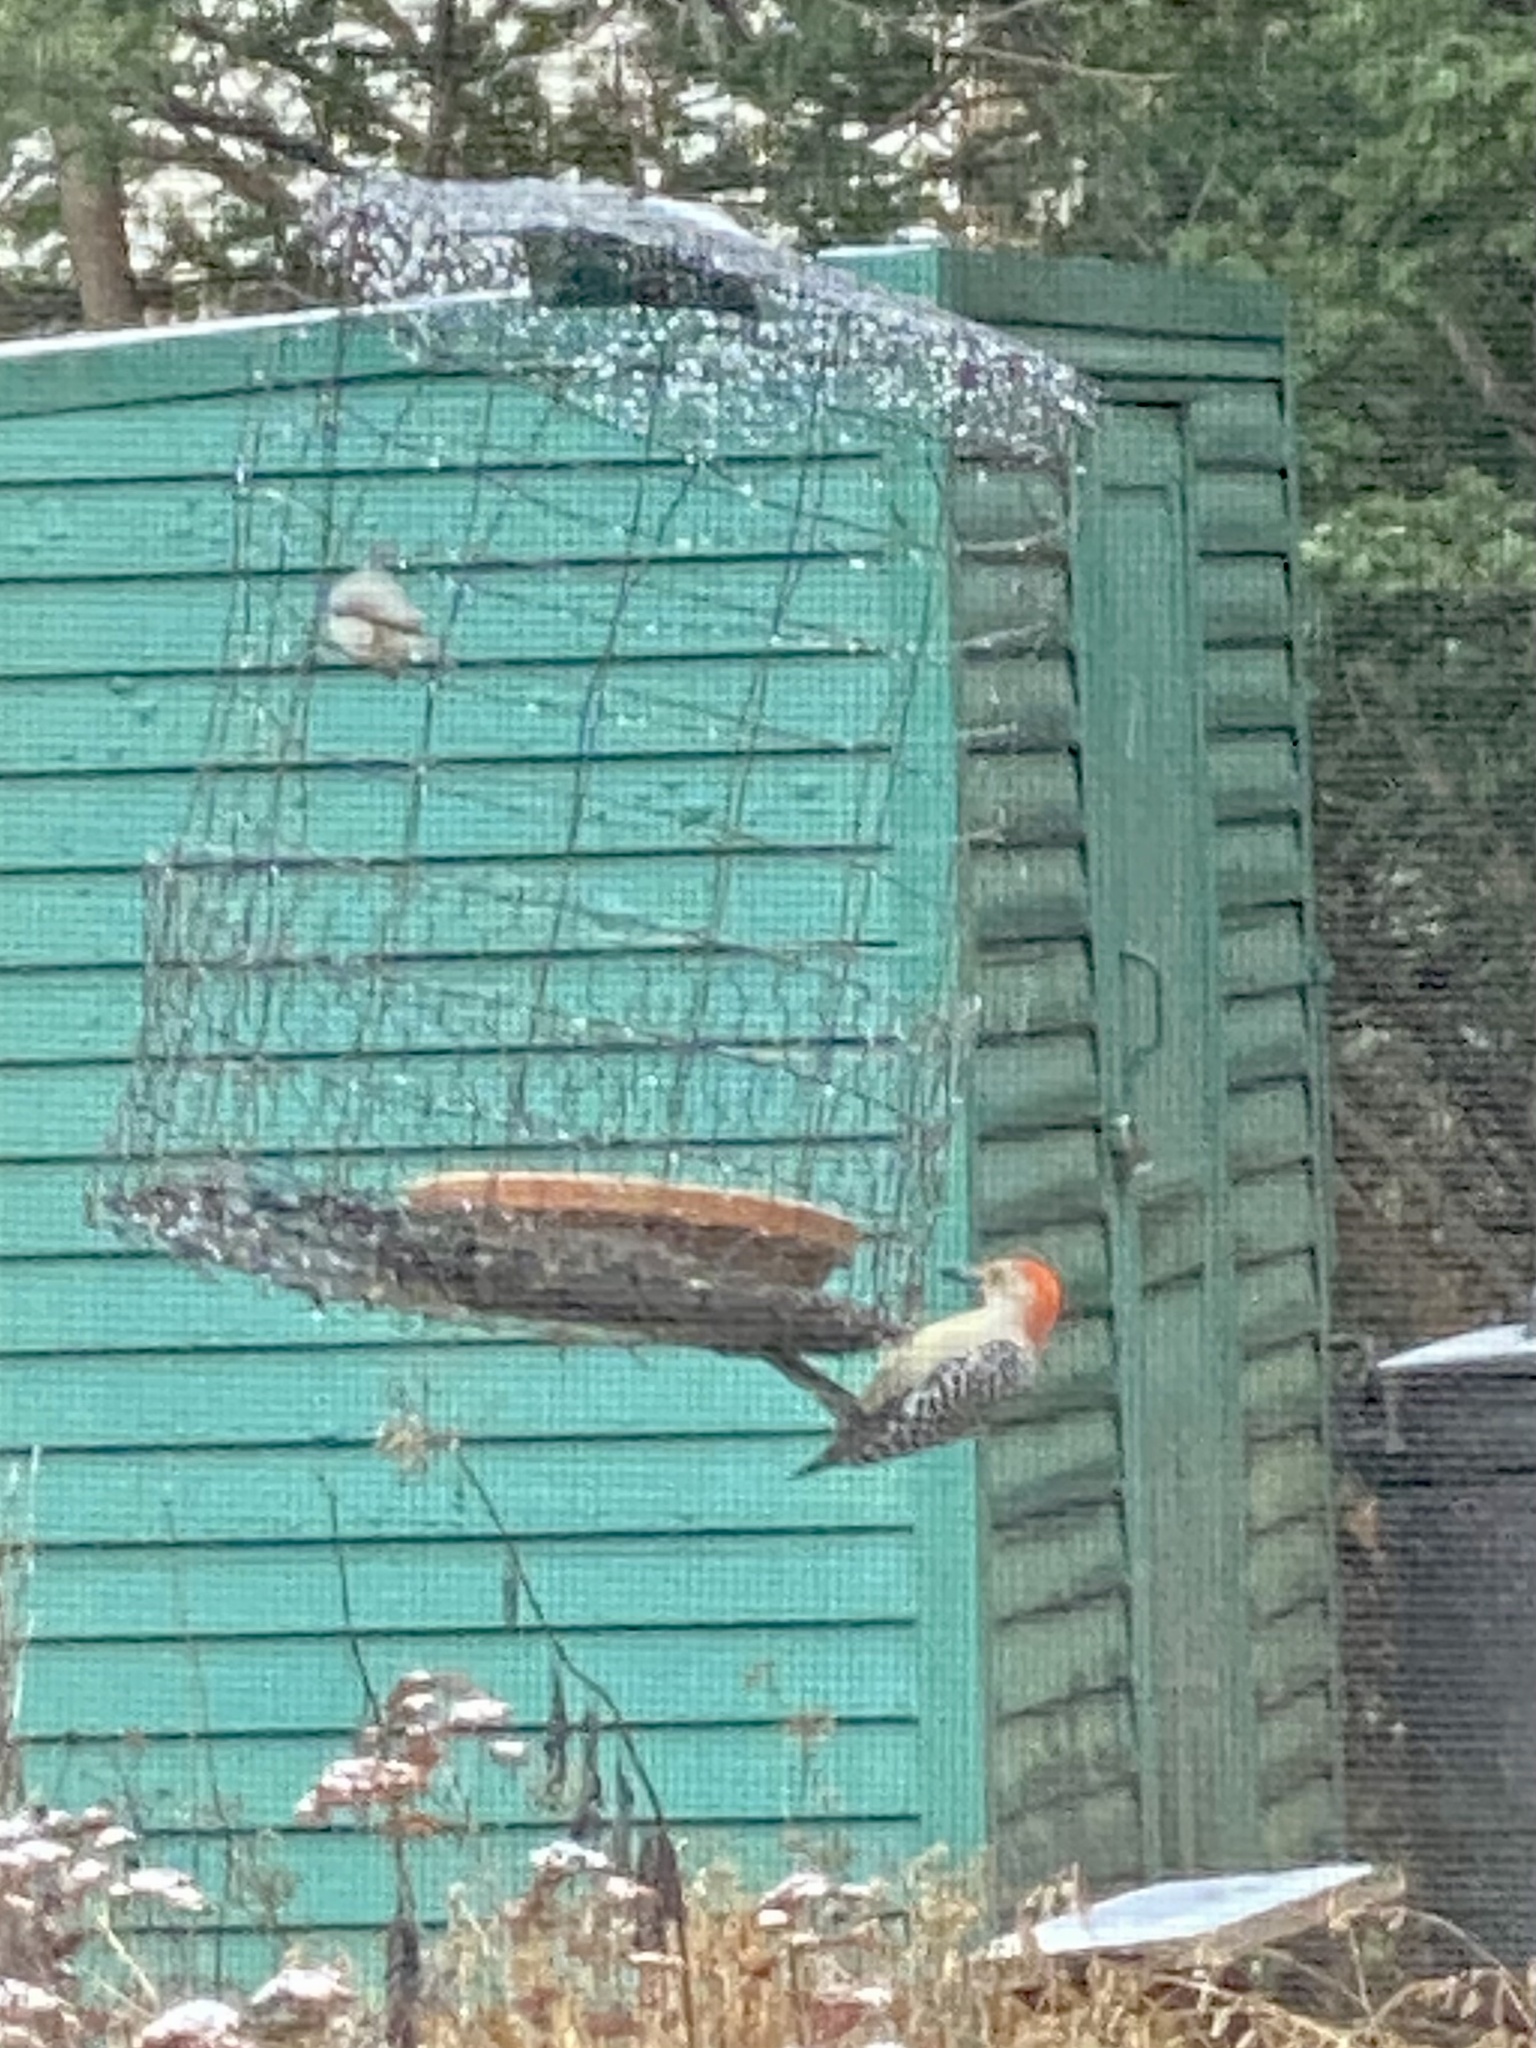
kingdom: Animalia
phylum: Chordata
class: Aves
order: Piciformes
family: Picidae
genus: Melanerpes
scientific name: Melanerpes carolinus
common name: Red-bellied woodpecker
